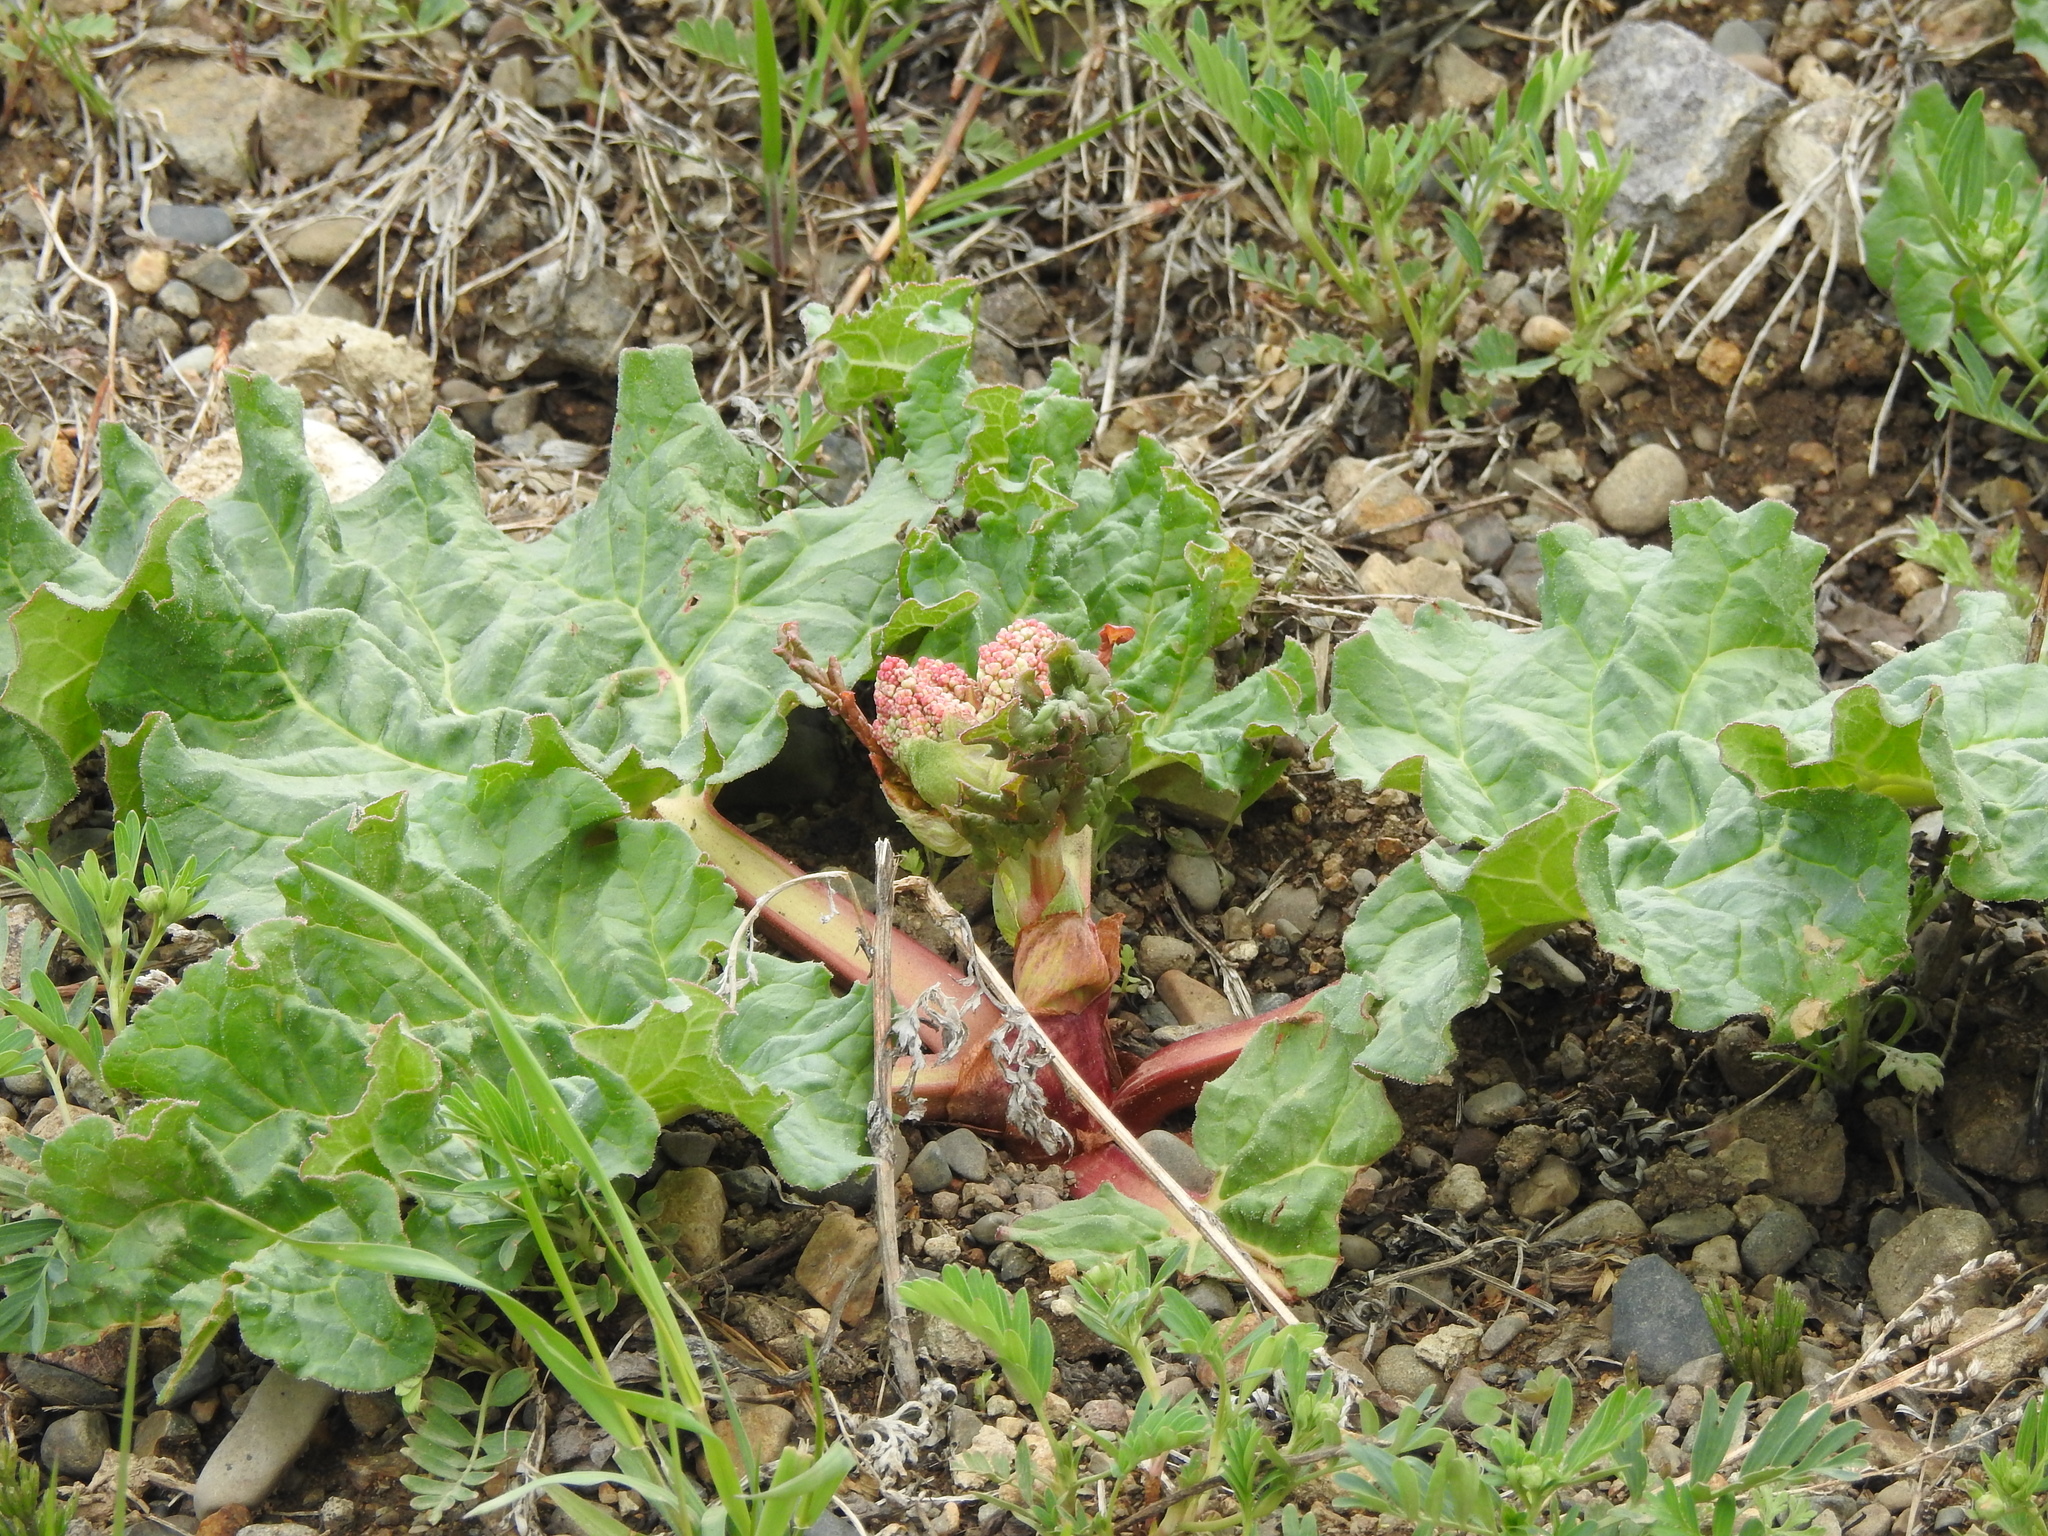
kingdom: Plantae
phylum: Tracheophyta
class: Magnoliopsida
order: Caryophyllales
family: Polygonaceae
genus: Rheum
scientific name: Rheum rhabarbarum
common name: Garden rhubarb
